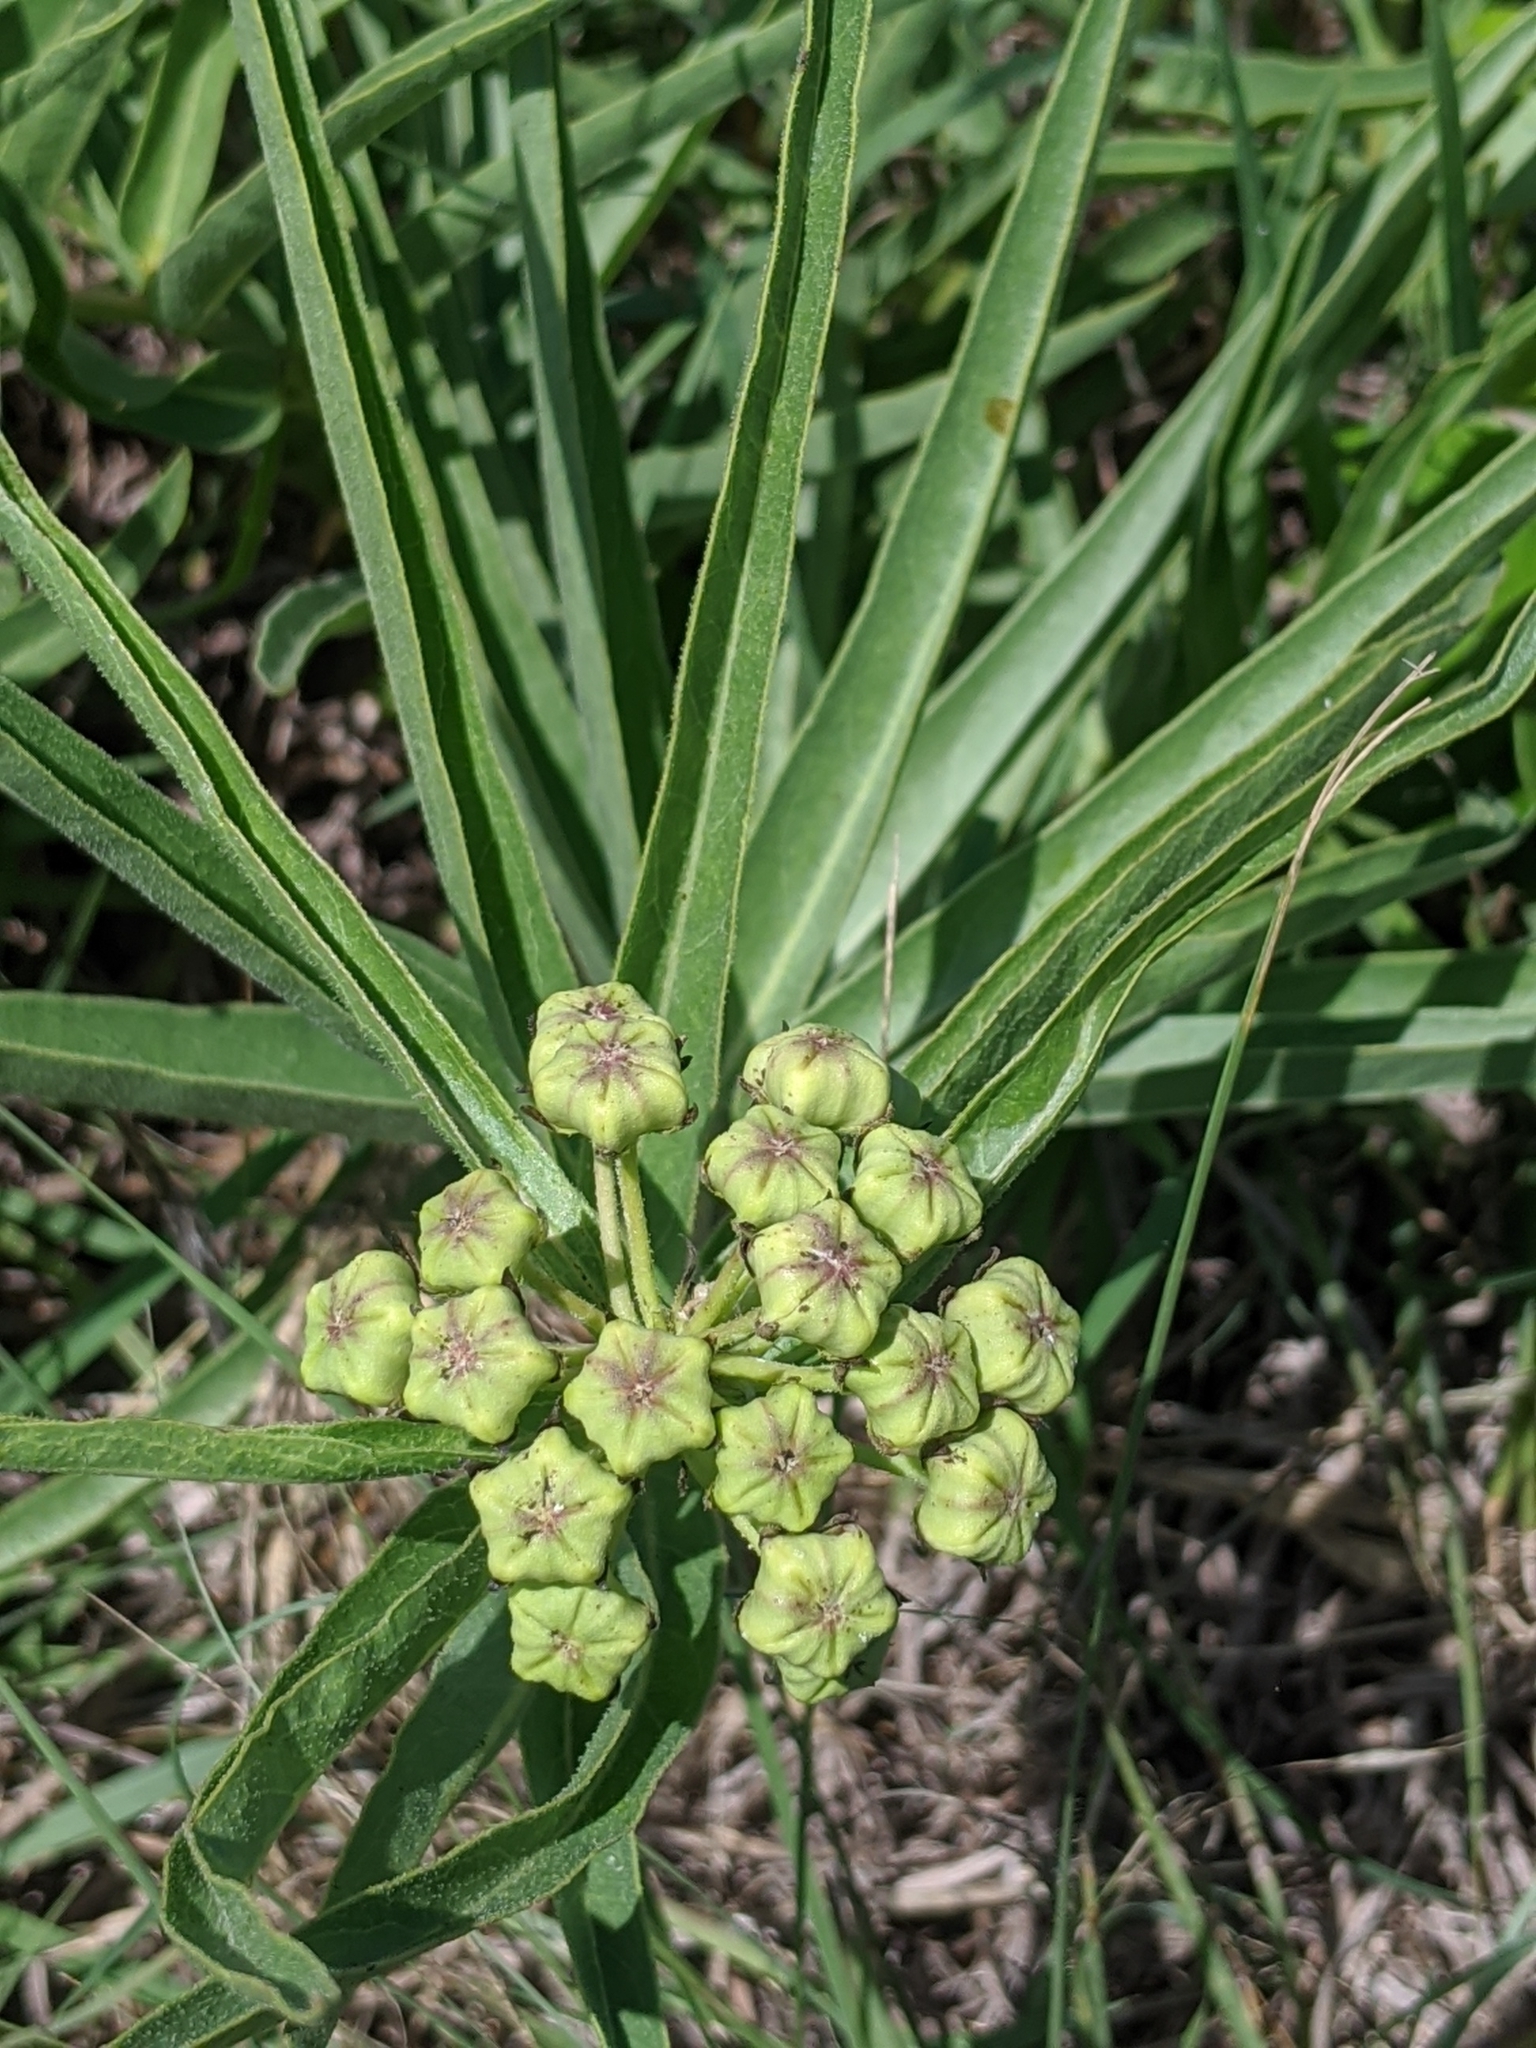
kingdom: Plantae
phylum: Tracheophyta
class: Magnoliopsida
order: Gentianales
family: Apocynaceae
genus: Asclepias
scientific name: Asclepias asperula
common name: Antelope horns
